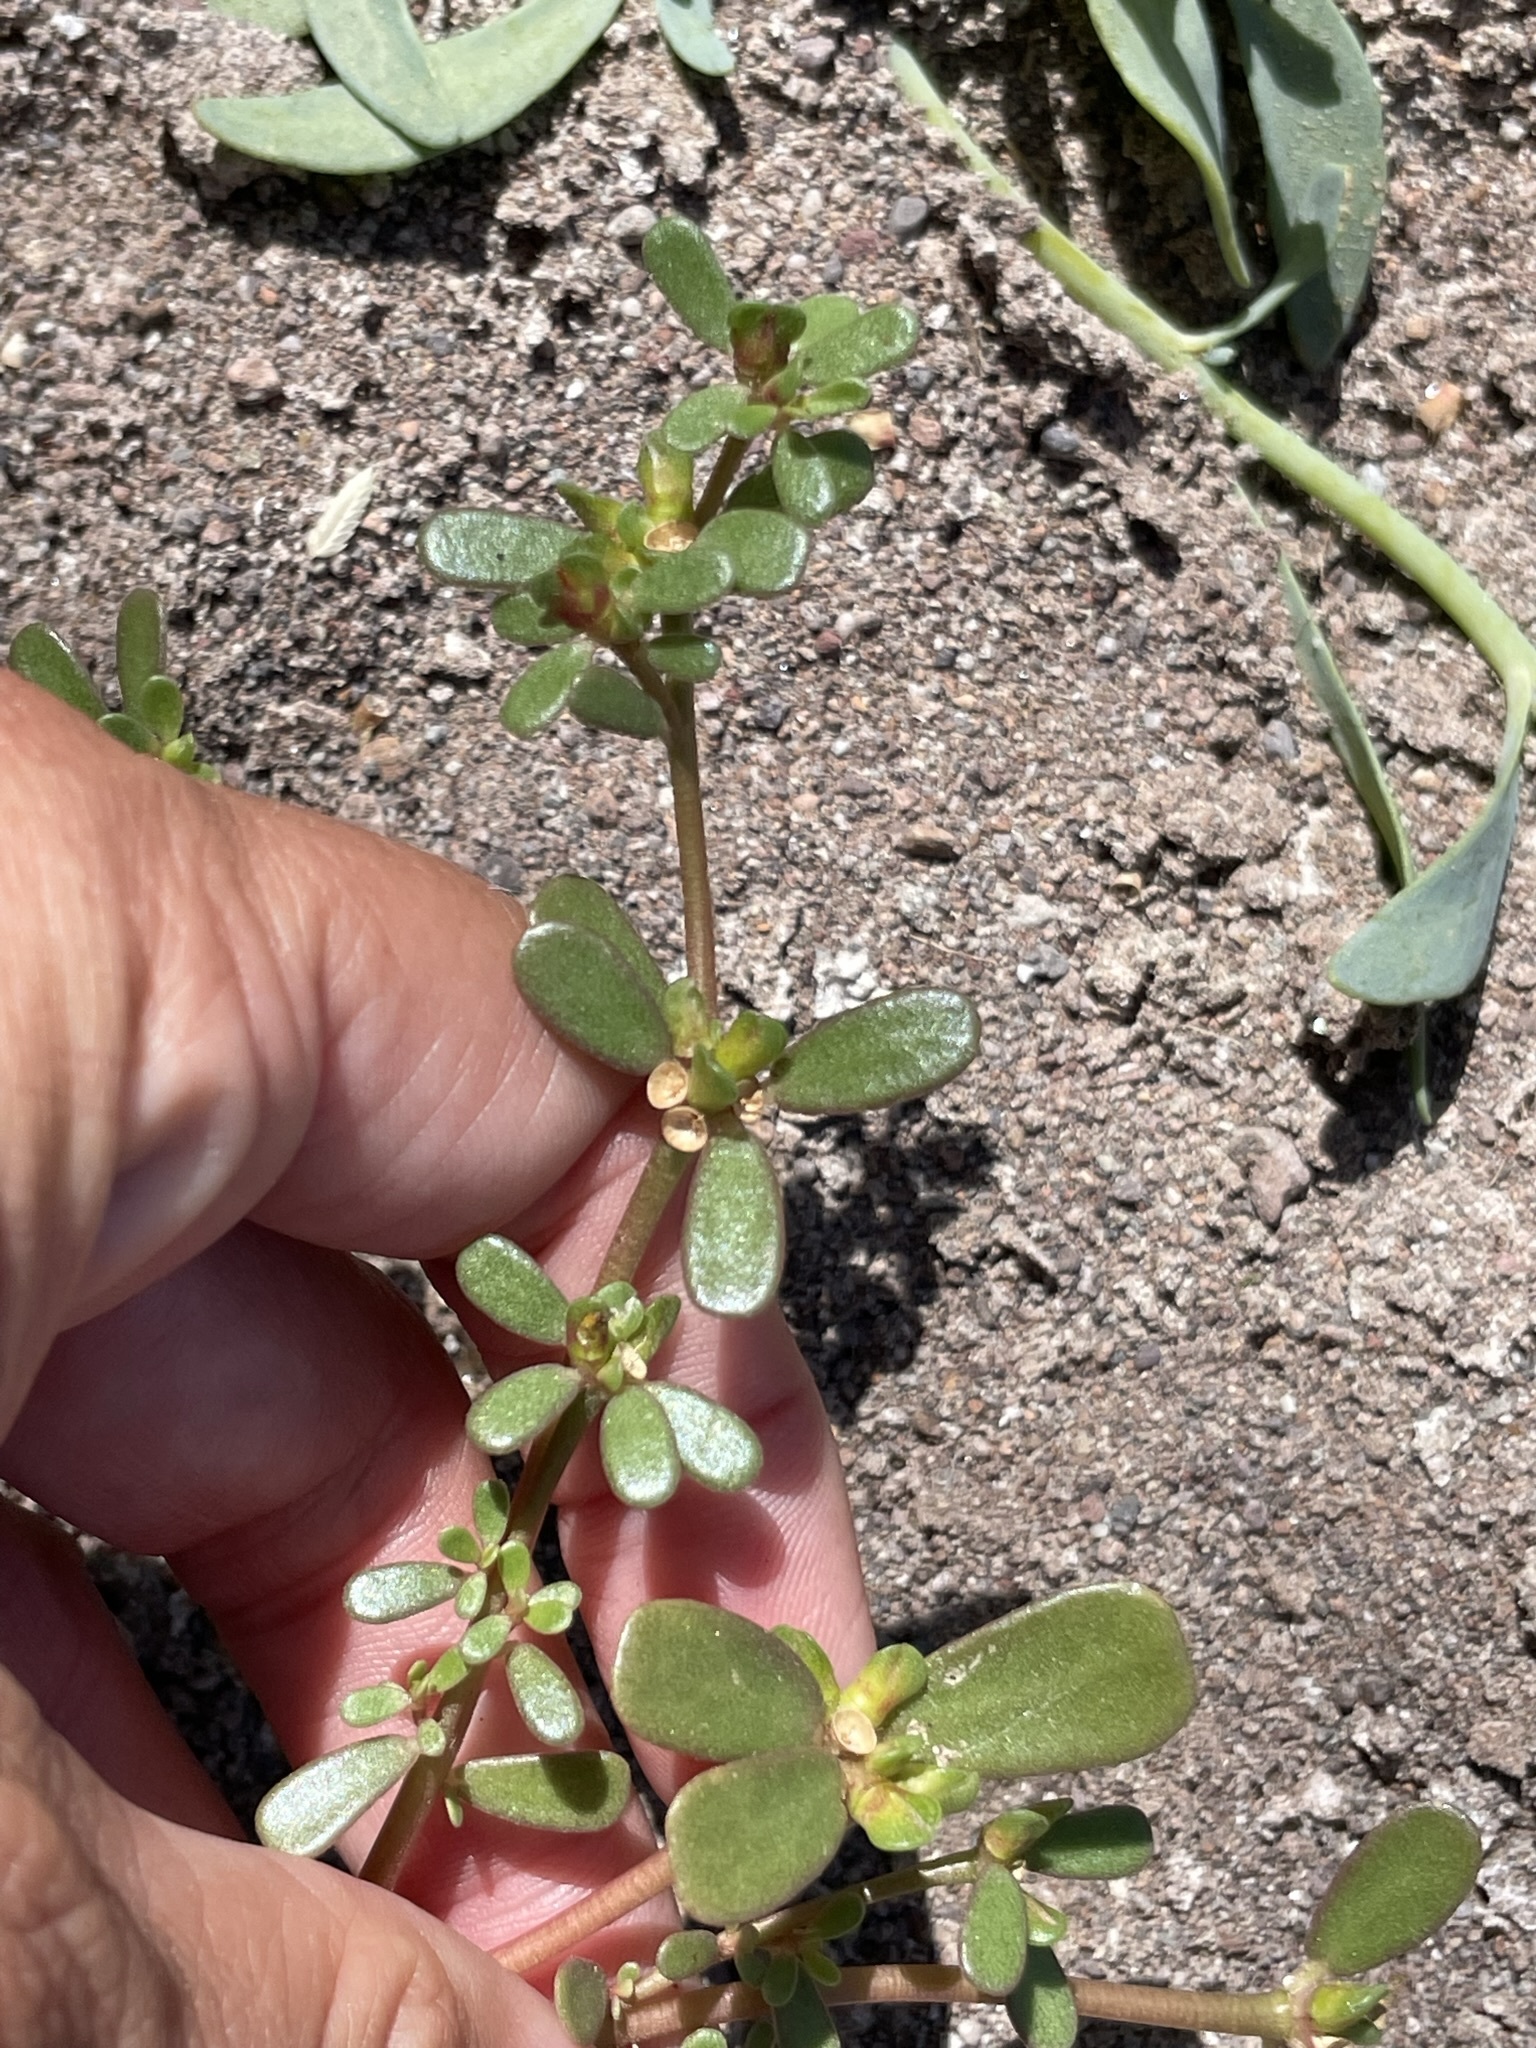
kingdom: Plantae
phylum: Tracheophyta
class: Magnoliopsida
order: Caryophyllales
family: Portulacaceae
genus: Portulaca
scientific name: Portulaca oleracea
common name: Common purslane
